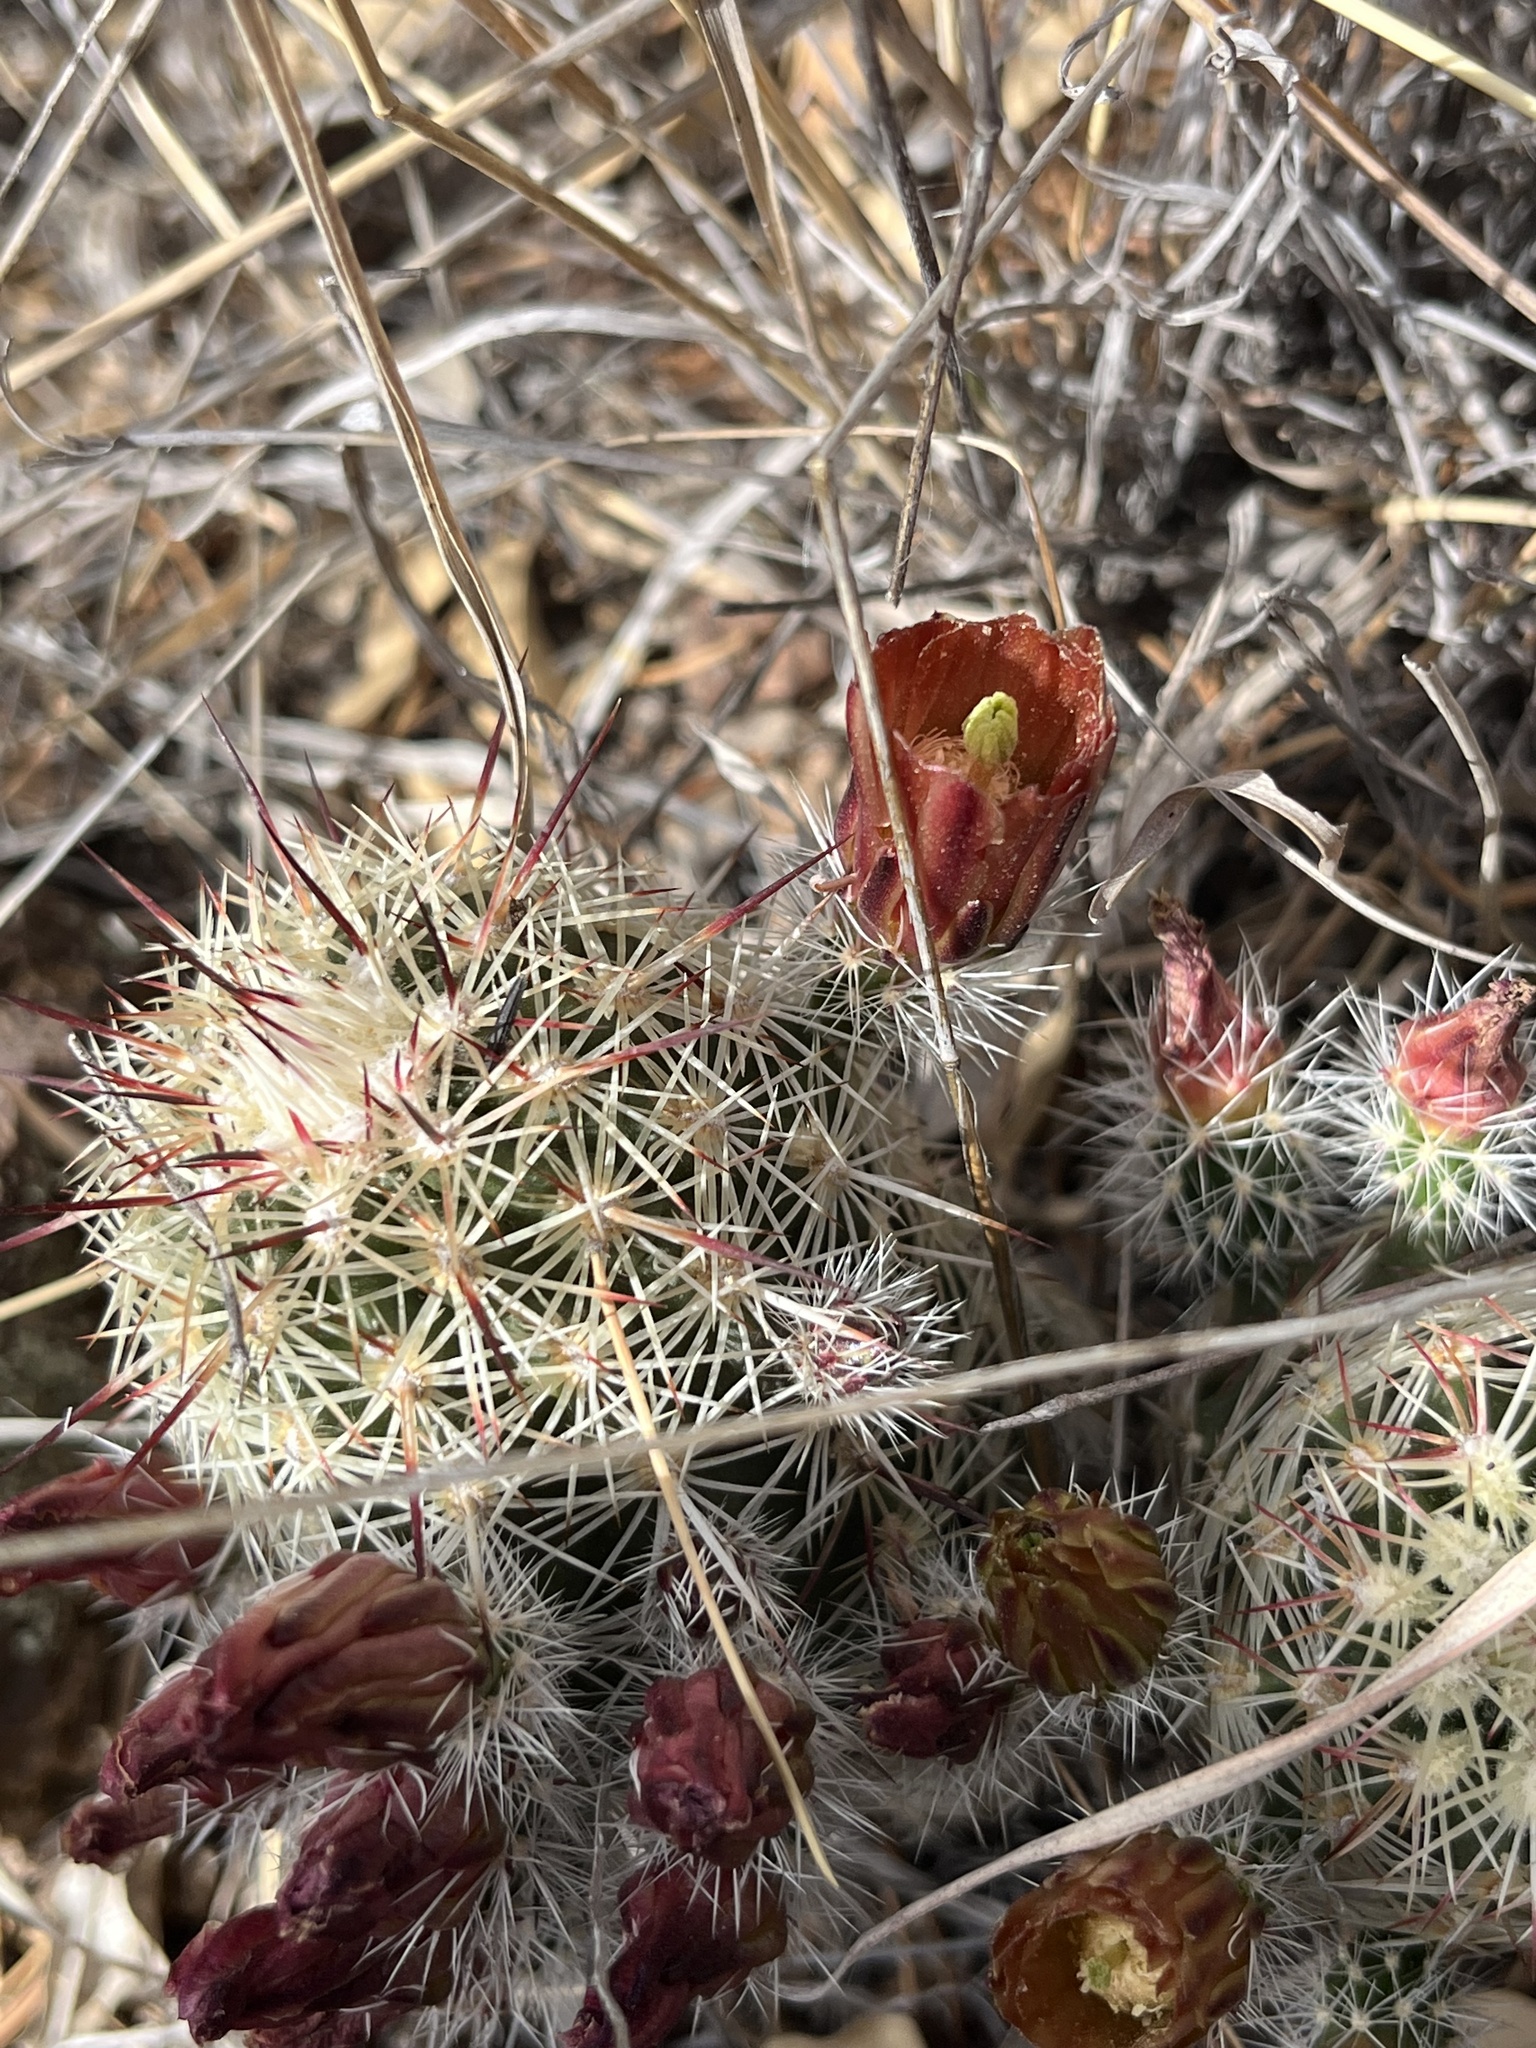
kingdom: Plantae
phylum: Tracheophyta
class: Magnoliopsida
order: Caryophyllales
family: Cactaceae
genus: Echinocereus
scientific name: Echinocereus viridiflorus
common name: Nylon hedgehog cactus
